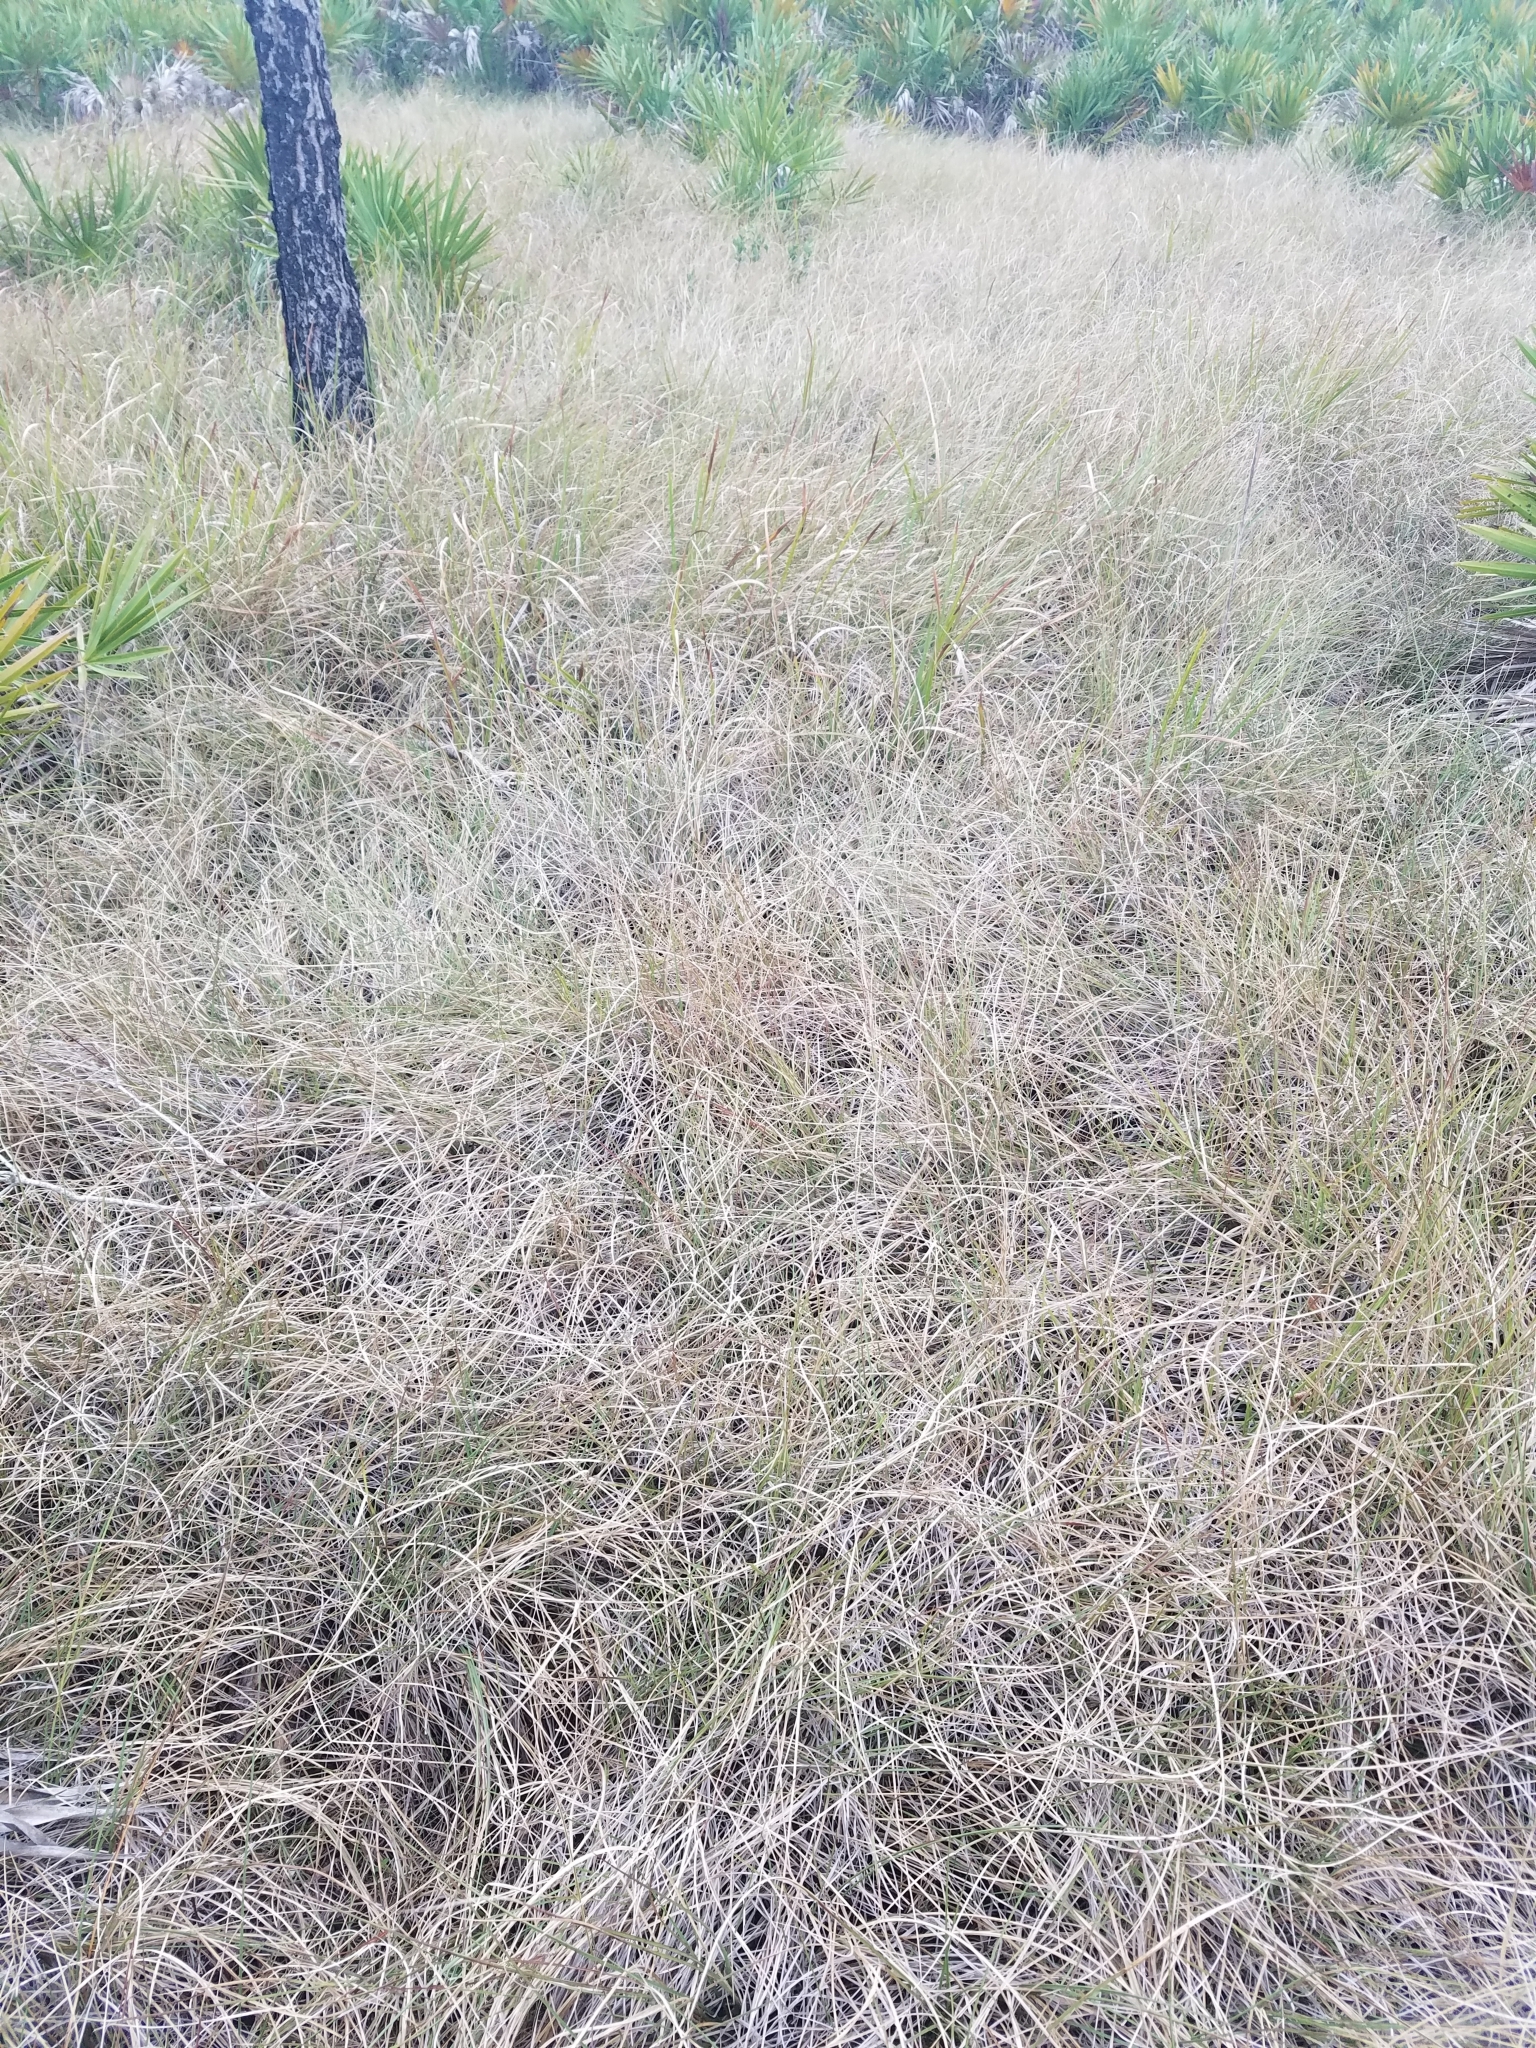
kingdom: Plantae
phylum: Tracheophyta
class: Liliopsida
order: Poales
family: Poaceae
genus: Coleataenia
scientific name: Coleataenia abscissa
